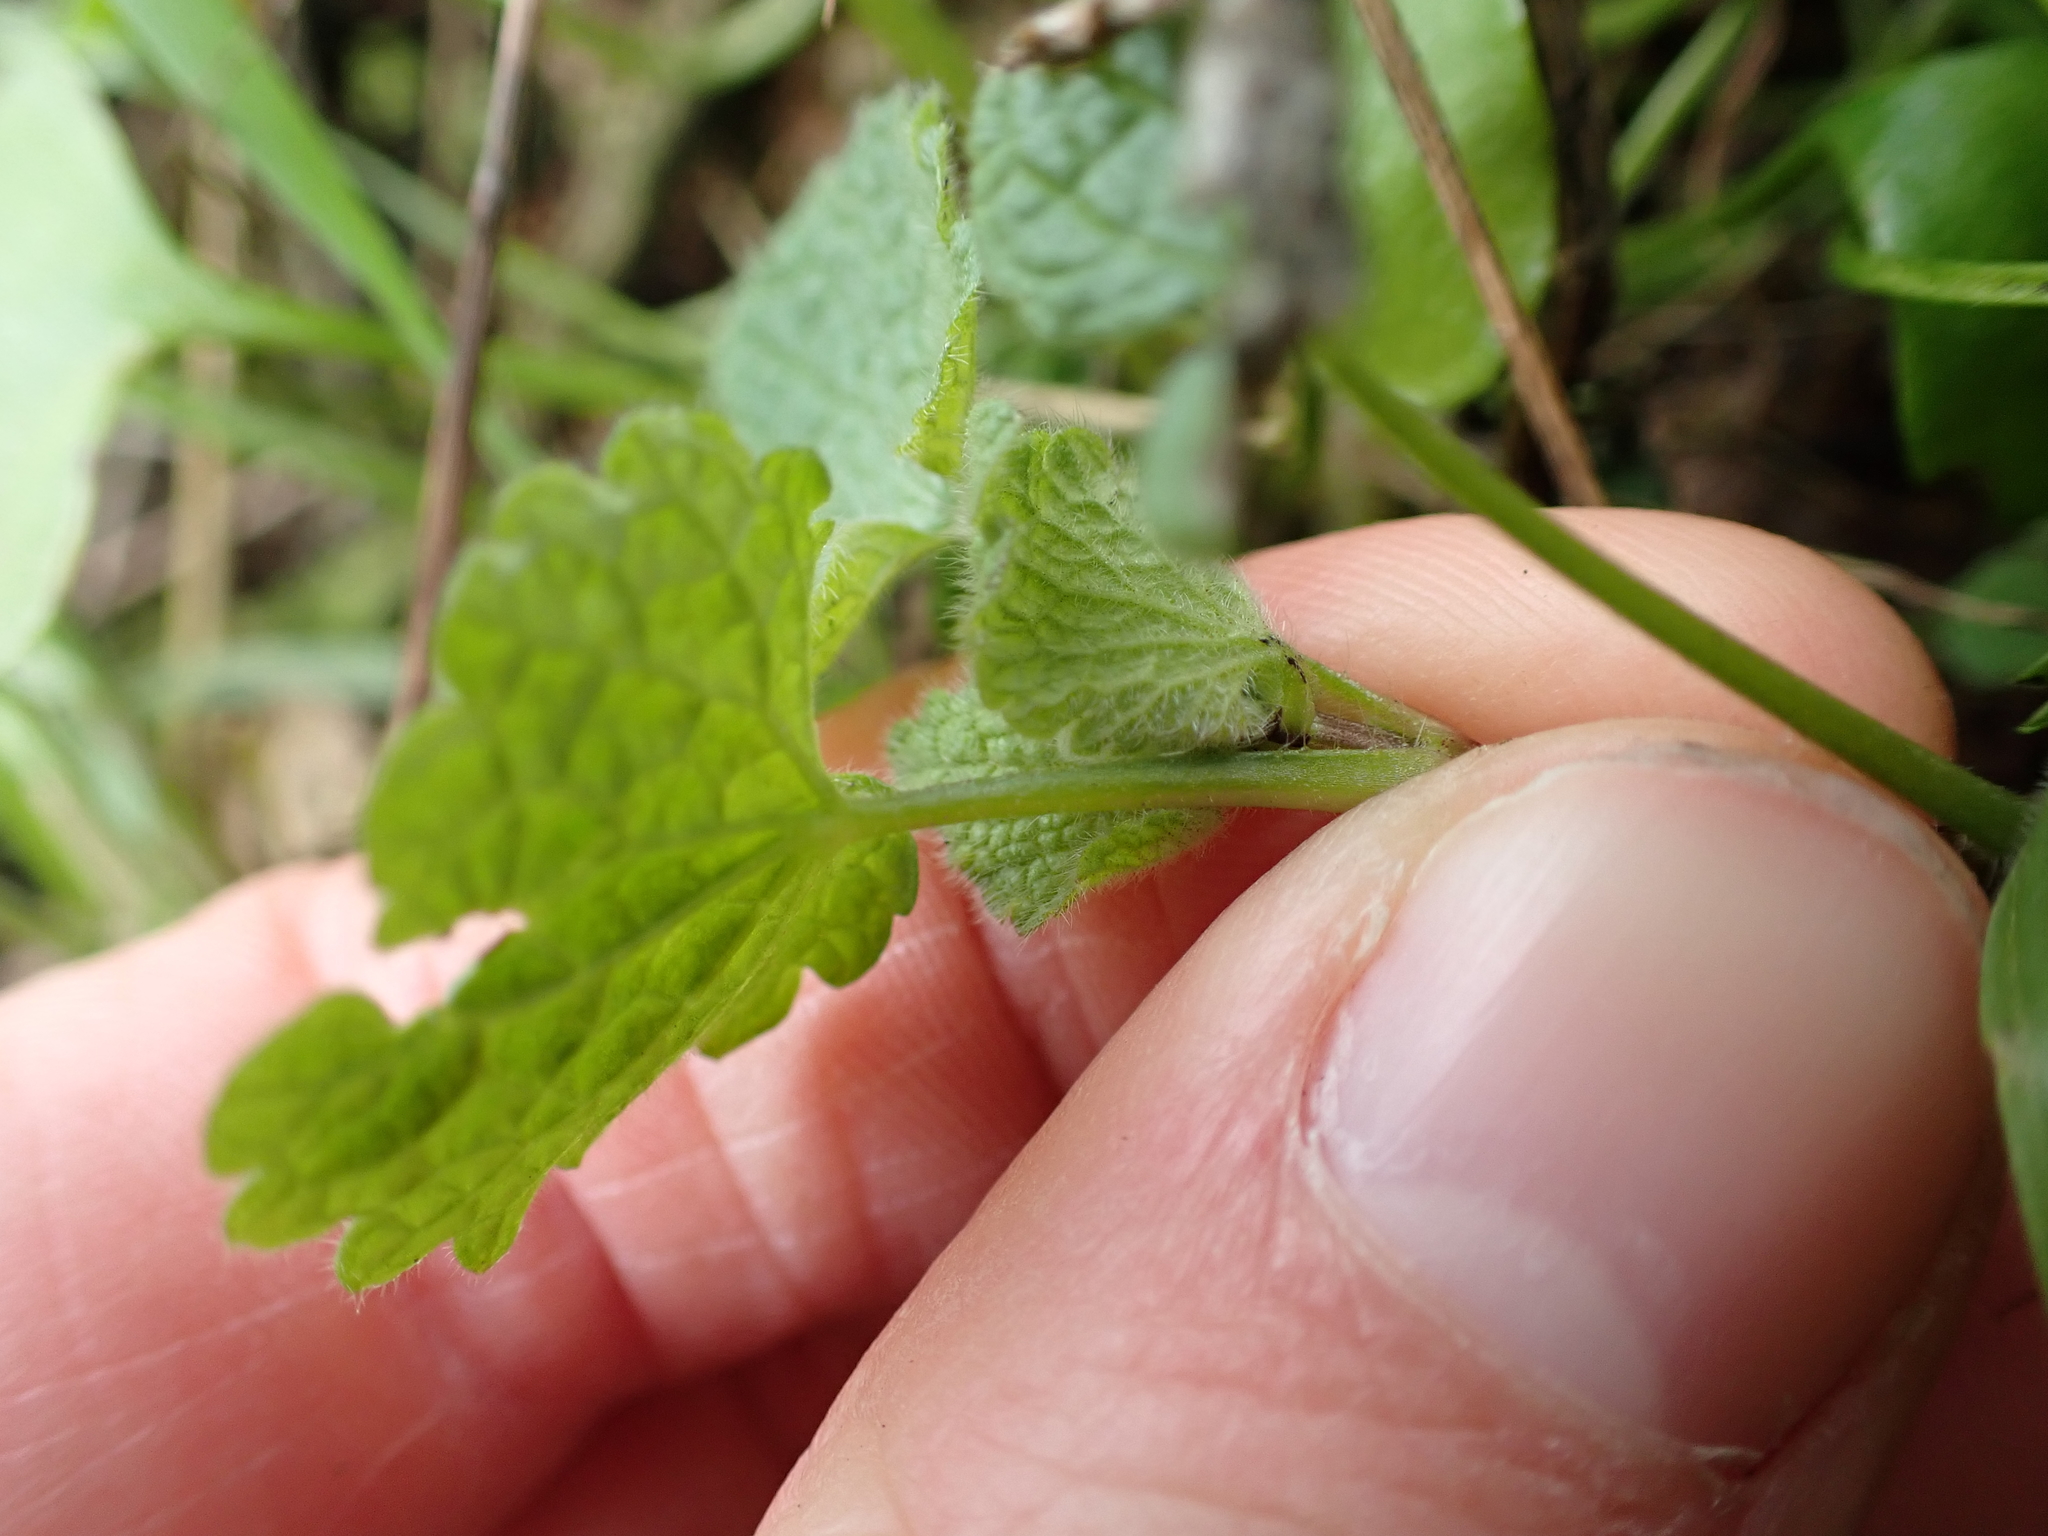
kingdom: Plantae
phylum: Tracheophyta
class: Magnoliopsida
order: Lamiales
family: Lamiaceae
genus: Lamium
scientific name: Lamium purpureum
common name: Red dead-nettle
